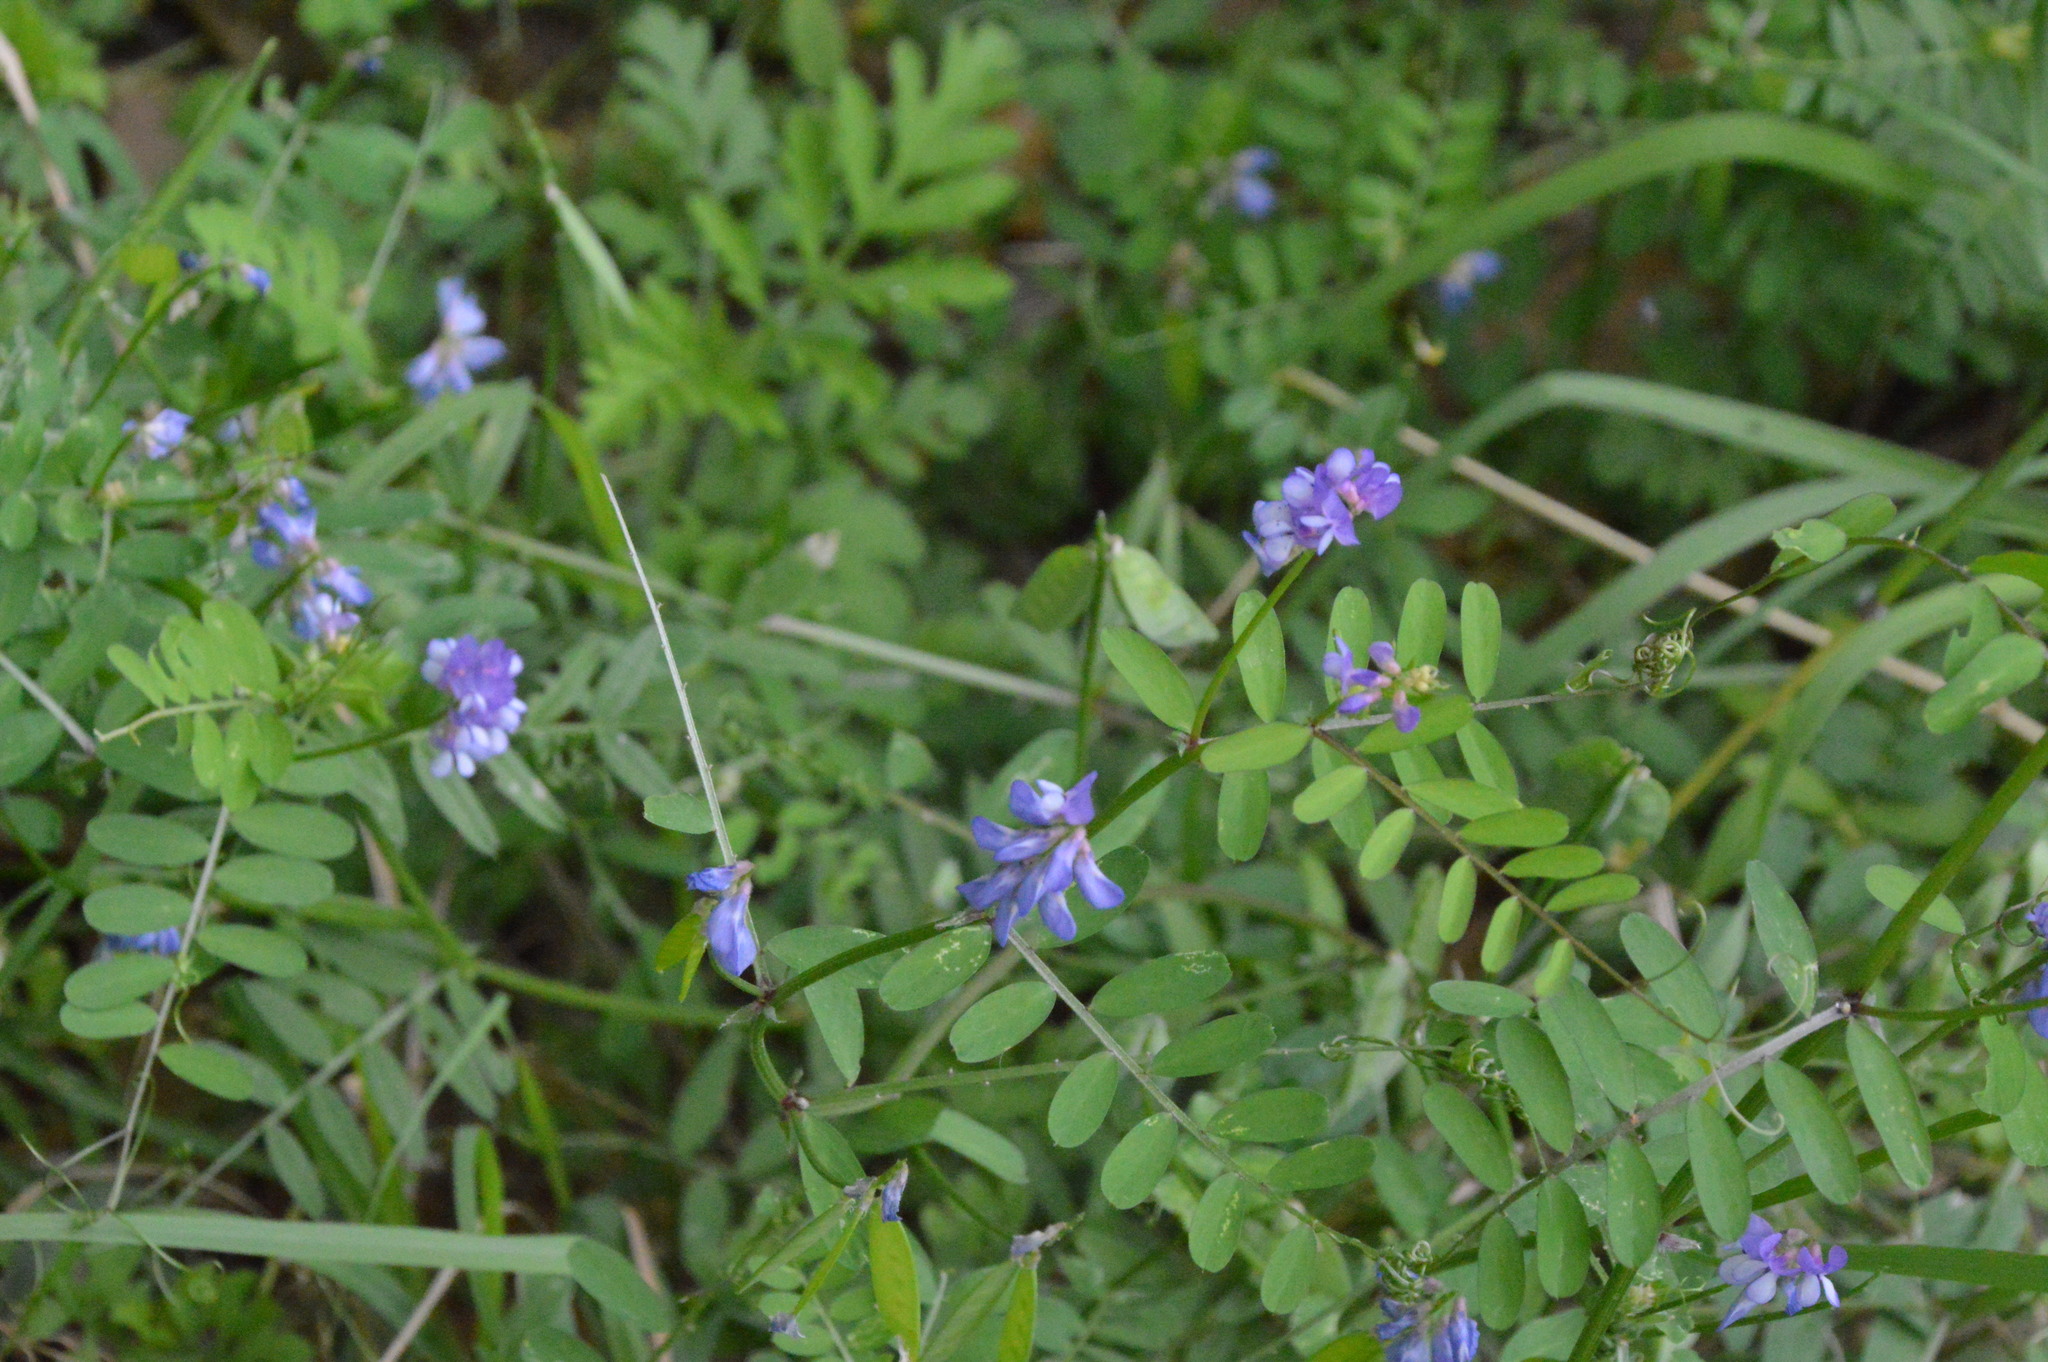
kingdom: Plantae
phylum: Tracheophyta
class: Magnoliopsida
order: Fabales
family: Fabaceae
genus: Vicia
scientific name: Vicia ludoviciana
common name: Louisiana vetch
